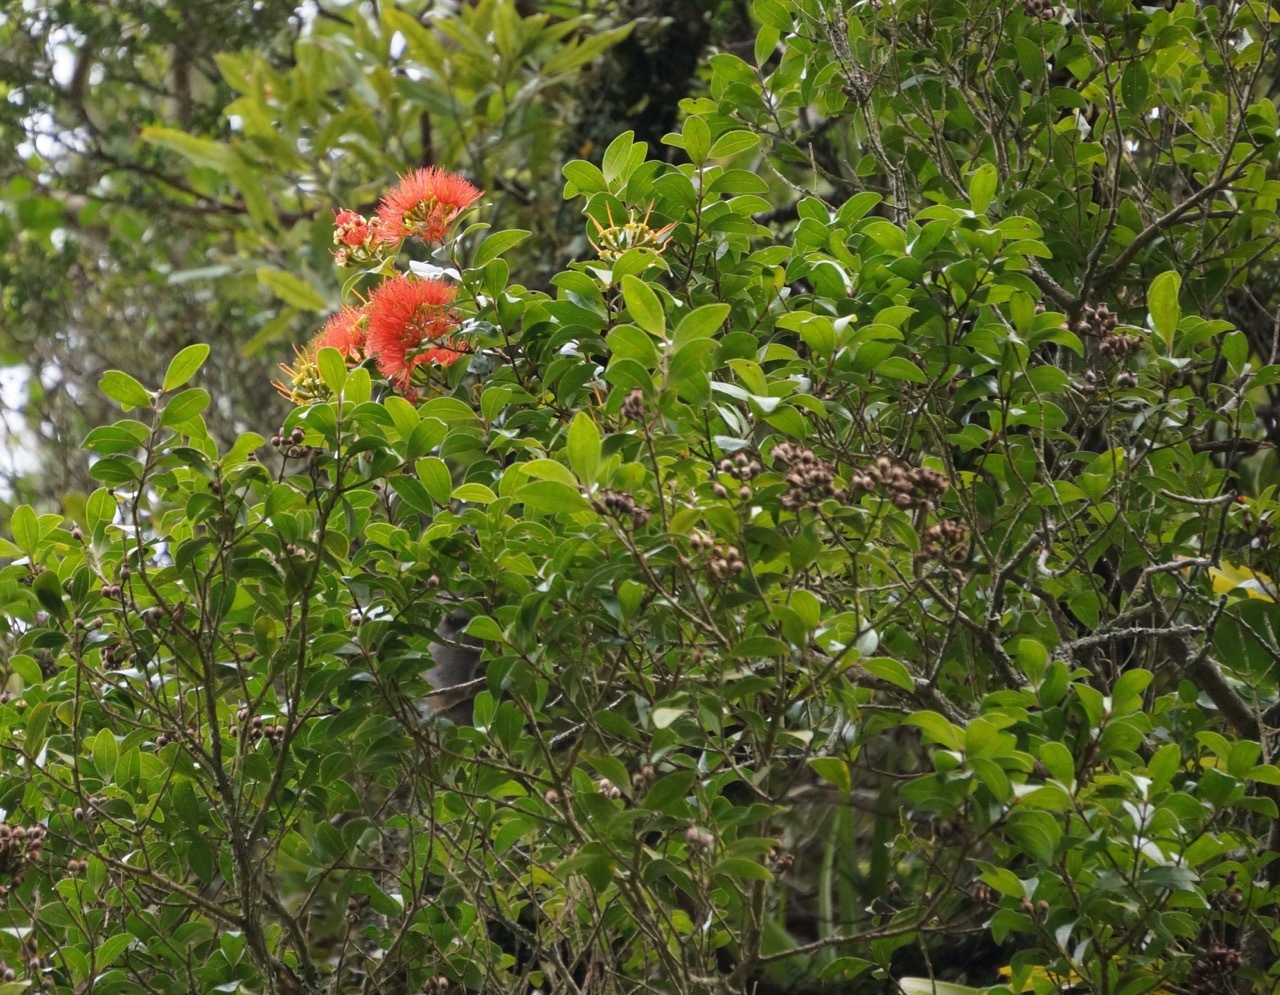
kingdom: Plantae
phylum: Tracheophyta
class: Magnoliopsida
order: Myrtales
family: Myrtaceae
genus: Metrosideros
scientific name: Metrosideros fulgens
